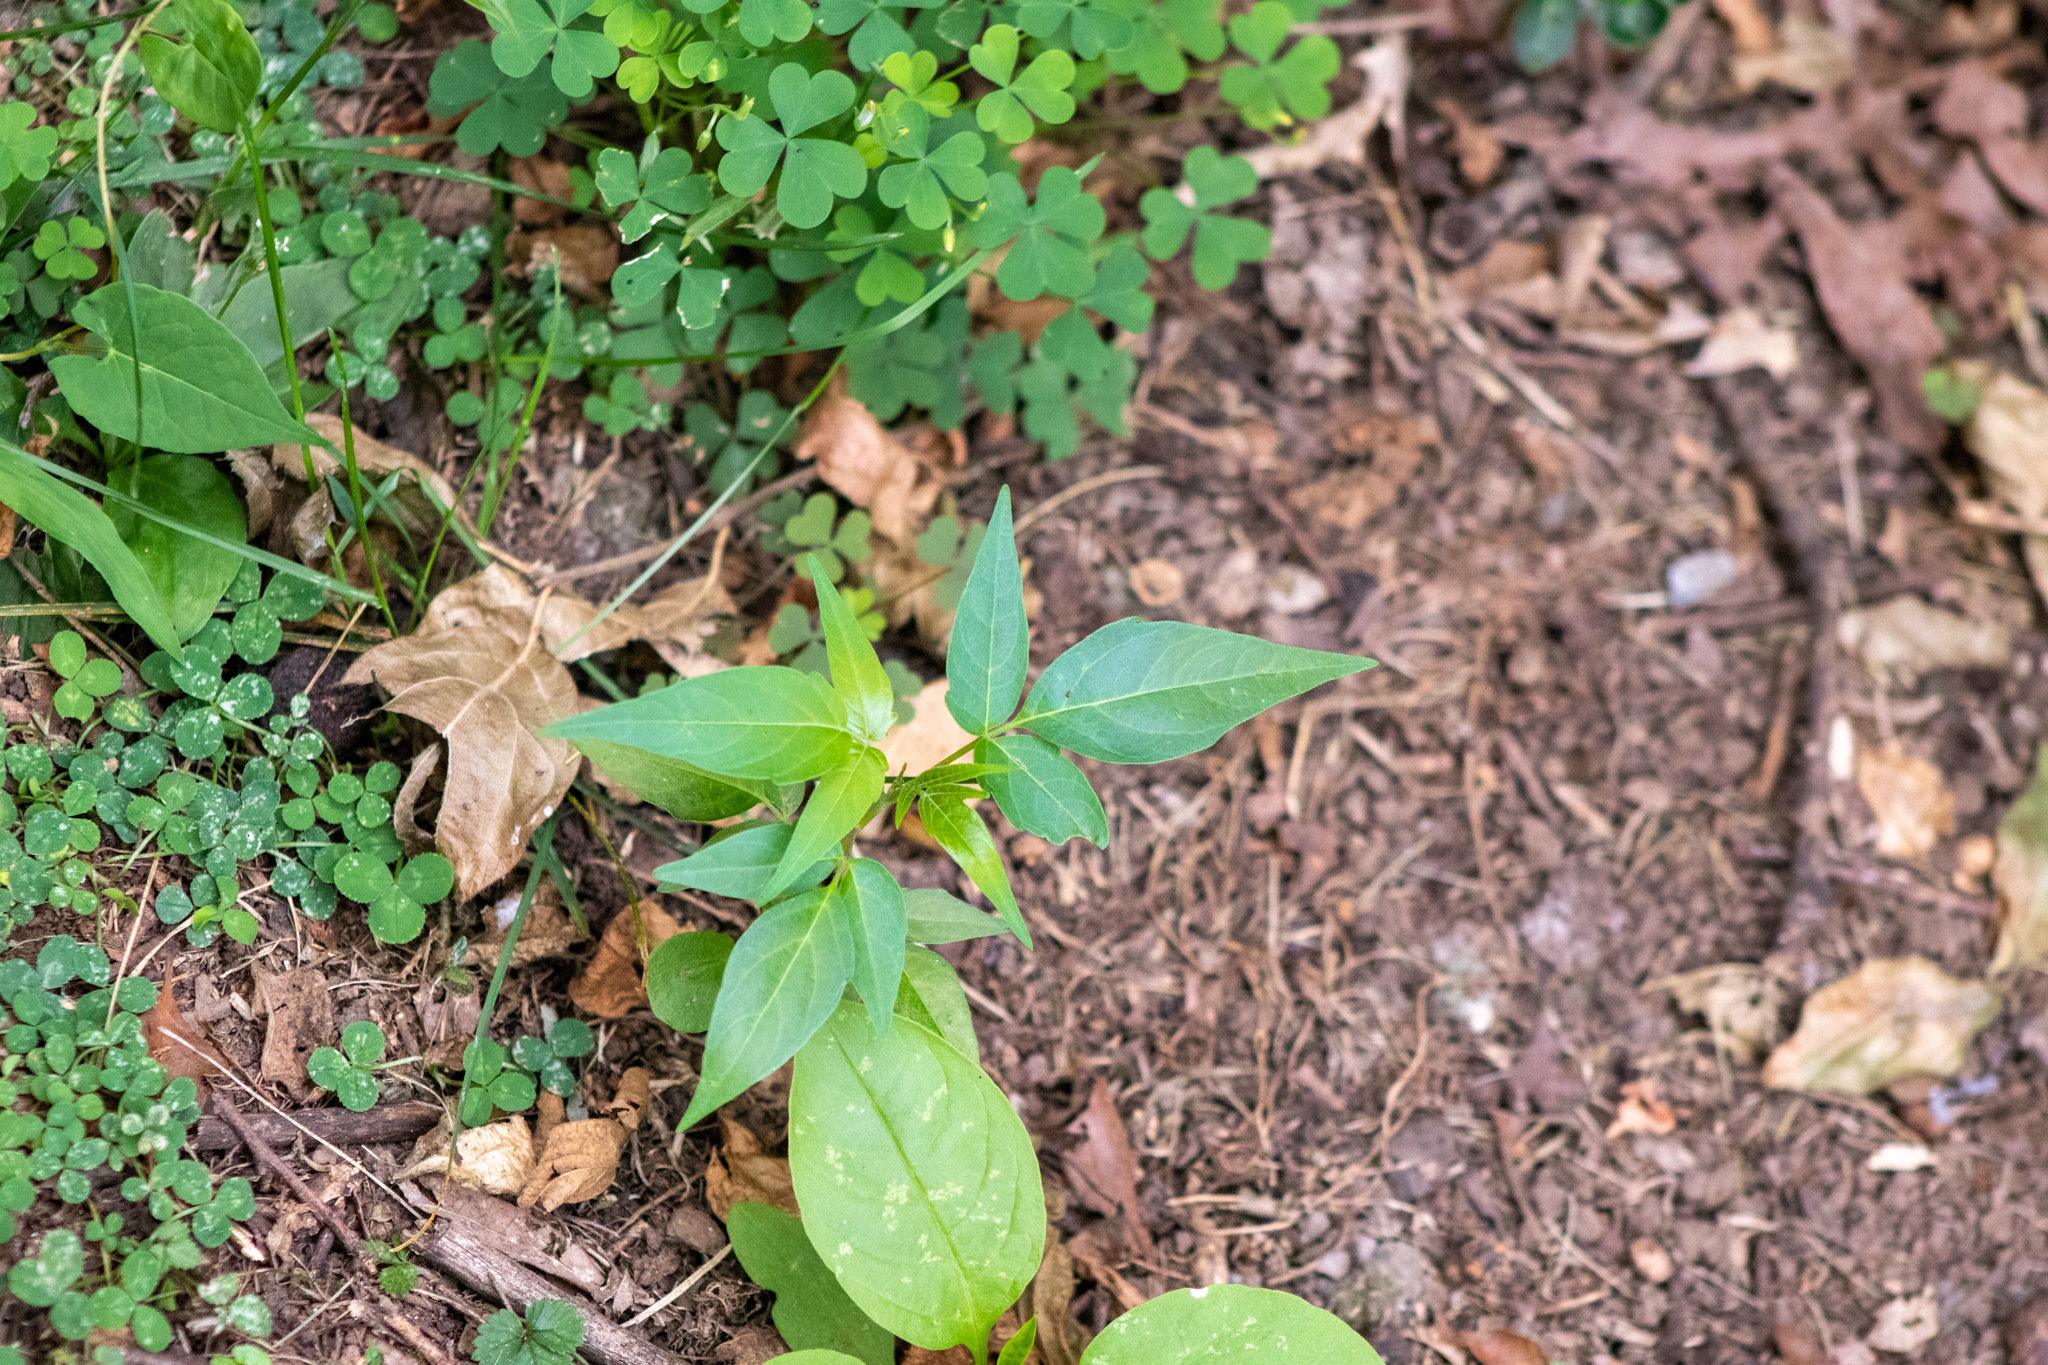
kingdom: Plantae
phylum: Tracheophyta
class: Magnoliopsida
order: Sapindales
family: Simaroubaceae
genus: Ailanthus
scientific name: Ailanthus altissima
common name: Tree-of-heaven
